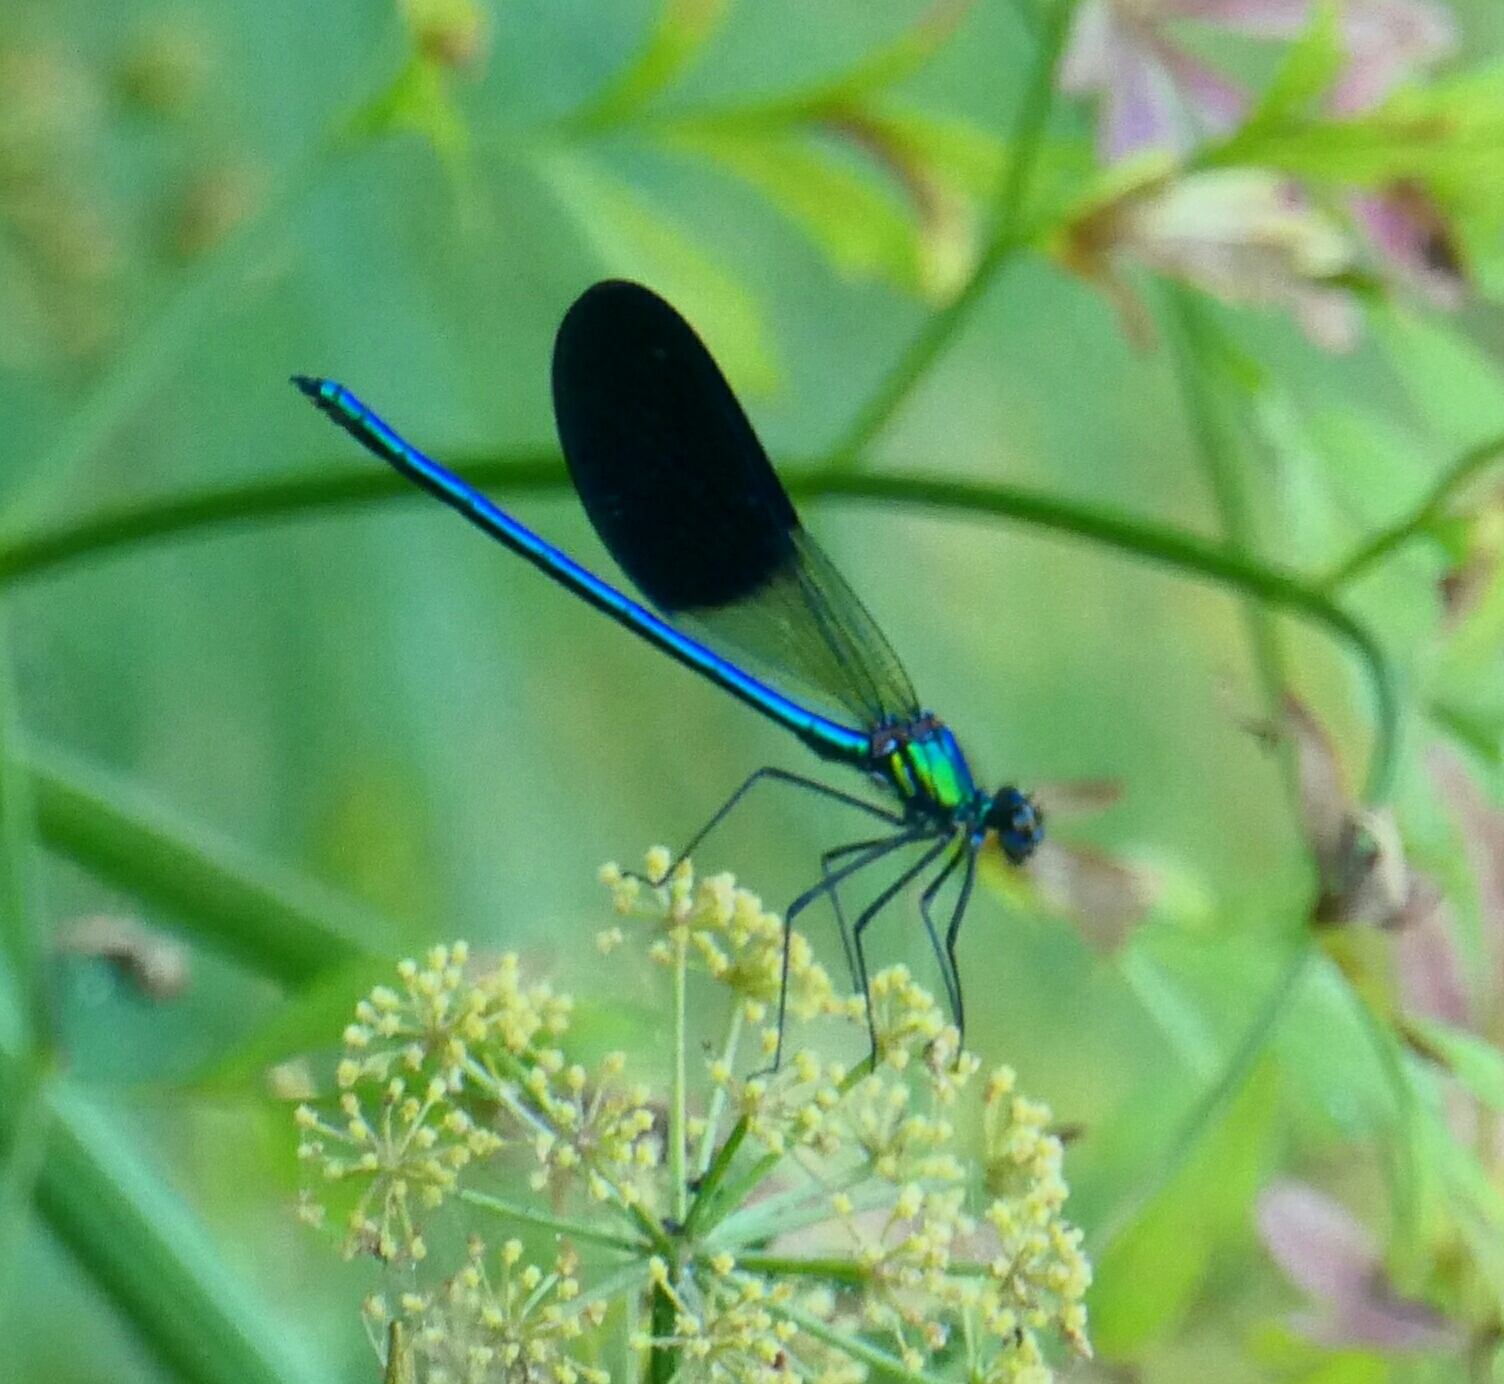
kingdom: Animalia
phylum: Arthropoda
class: Insecta
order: Odonata
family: Calopterygidae
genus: Calopteryx
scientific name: Calopteryx xanthostoma
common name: Western demoiselle
